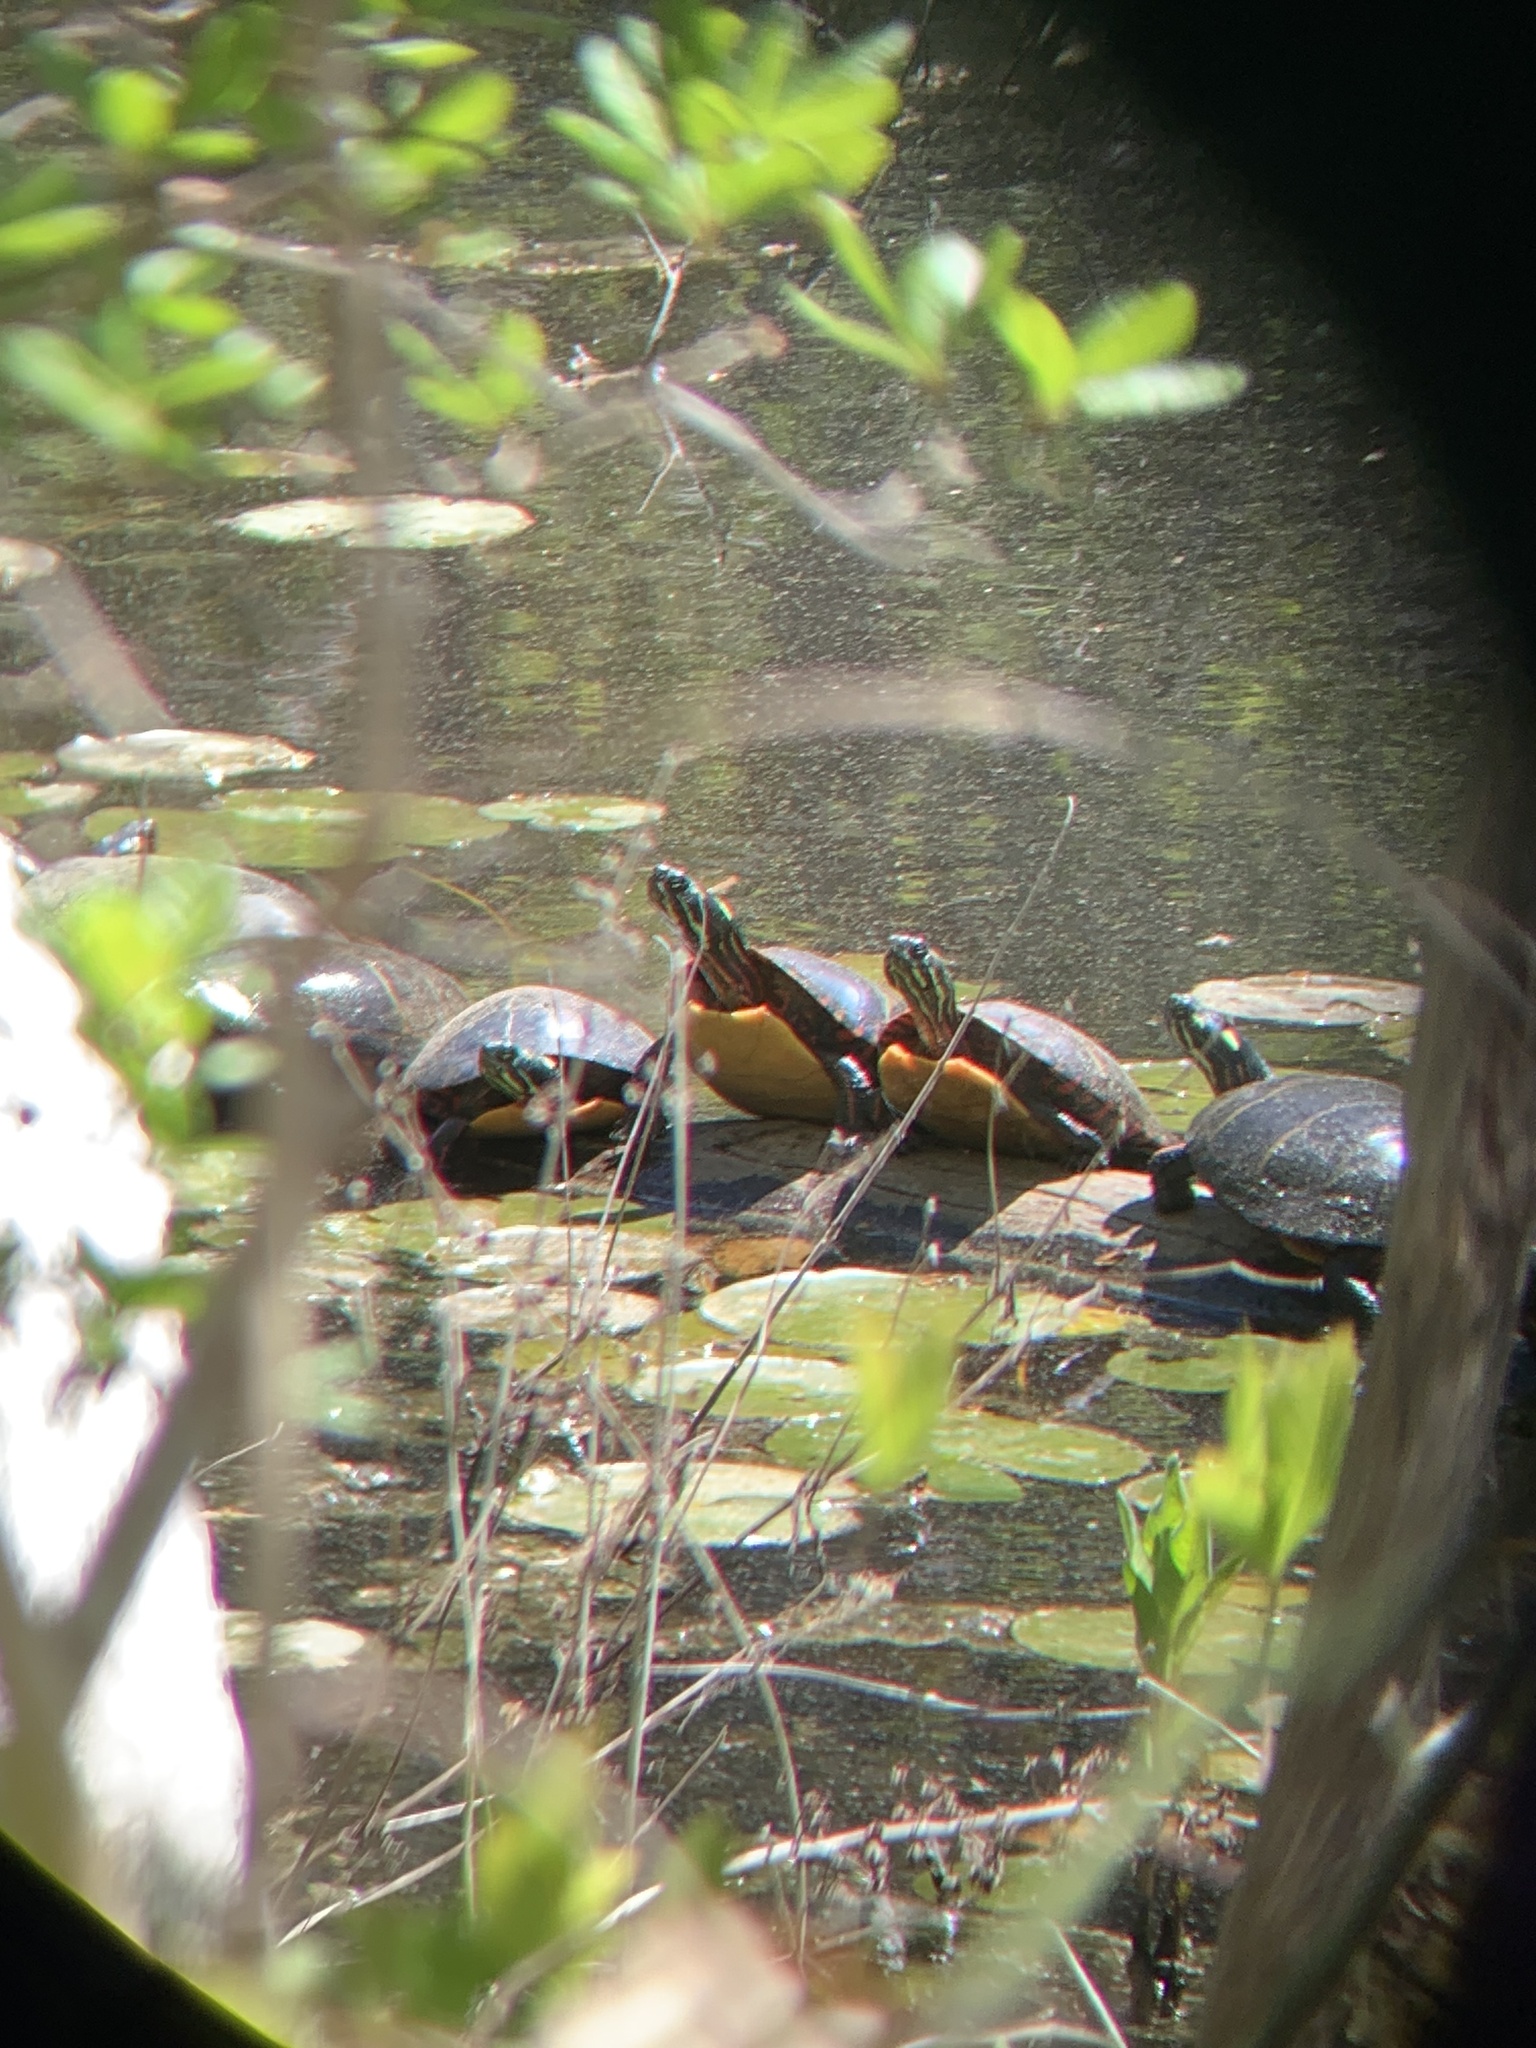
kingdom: Animalia
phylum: Chordata
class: Testudines
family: Emydidae
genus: Chrysemys
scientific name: Chrysemys picta
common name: Painted turtle
